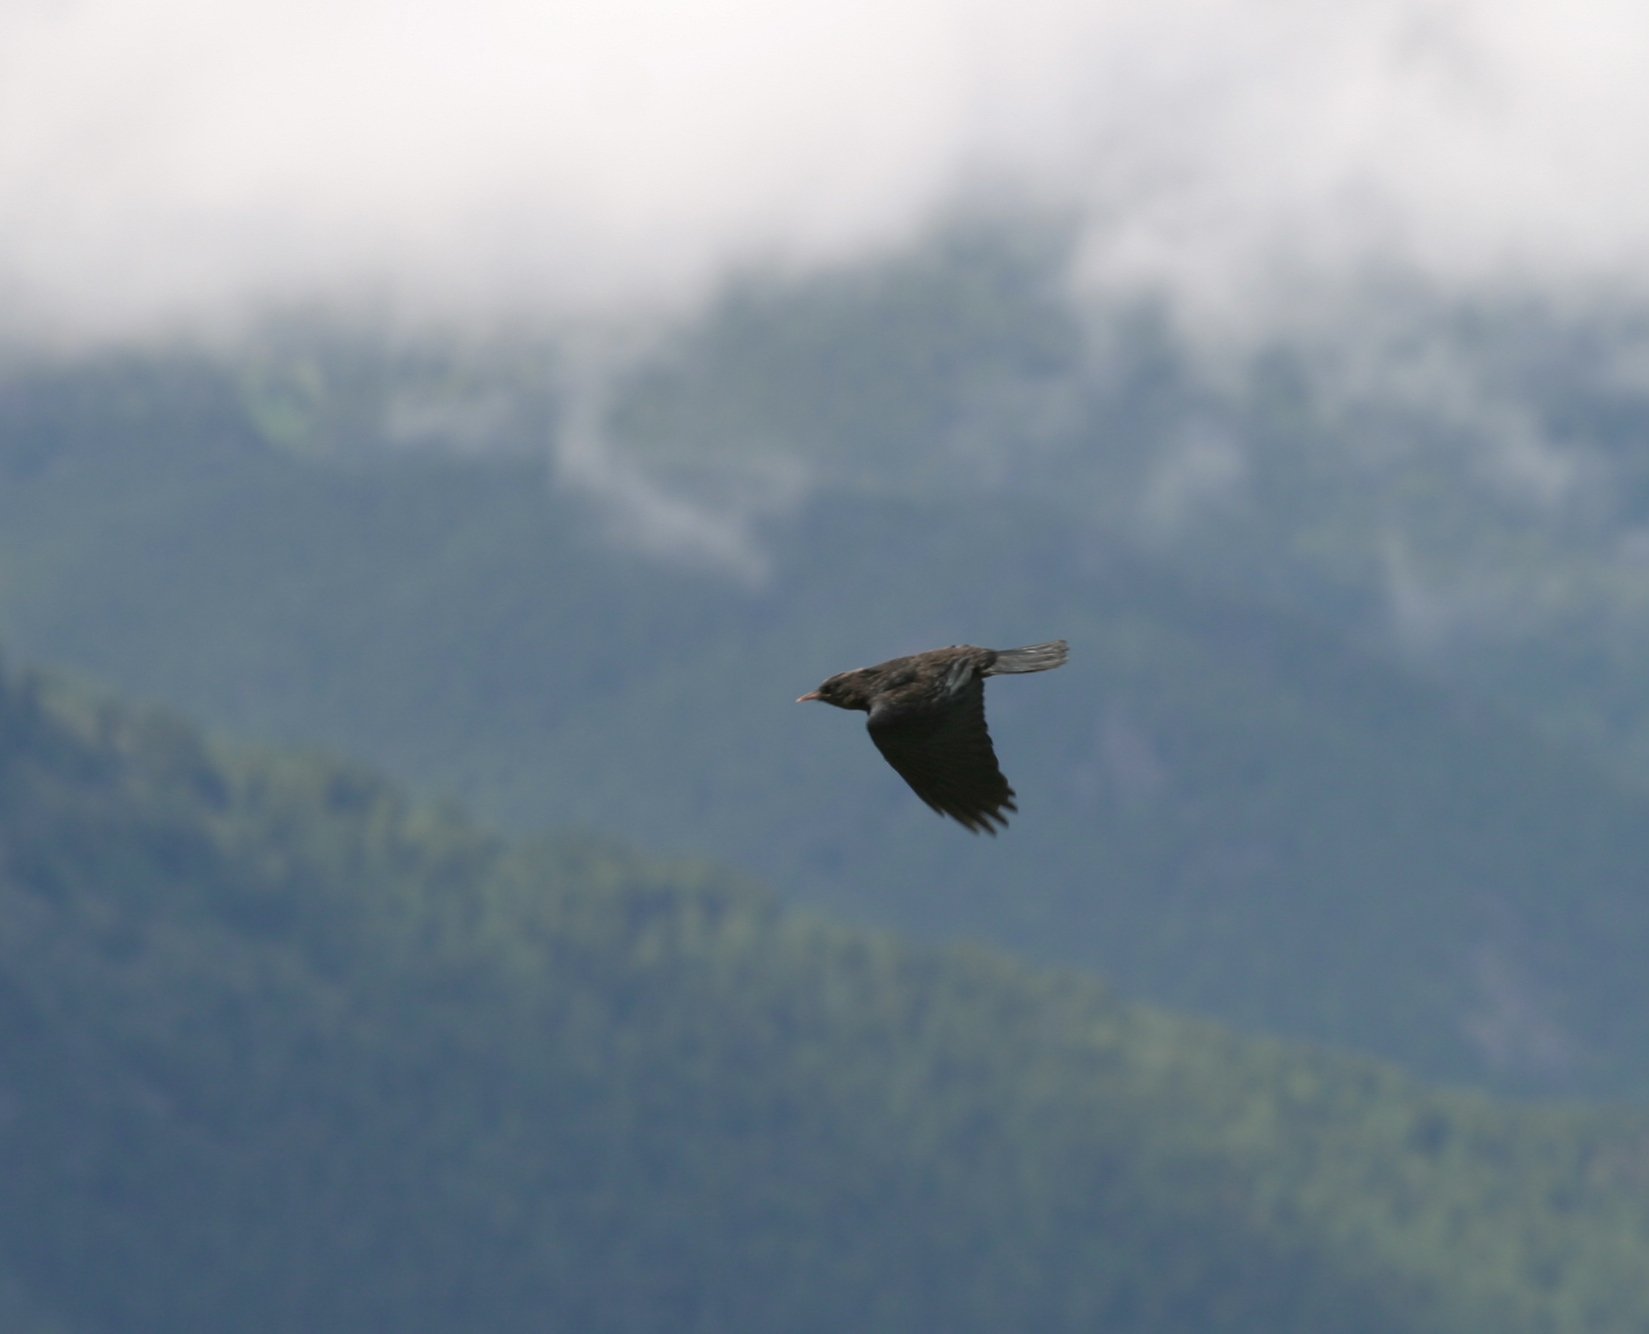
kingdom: Animalia
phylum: Chordata
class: Aves
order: Passeriformes
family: Corvidae
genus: Pyrrhocorax
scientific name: Pyrrhocorax graculus
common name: Alpine chough
